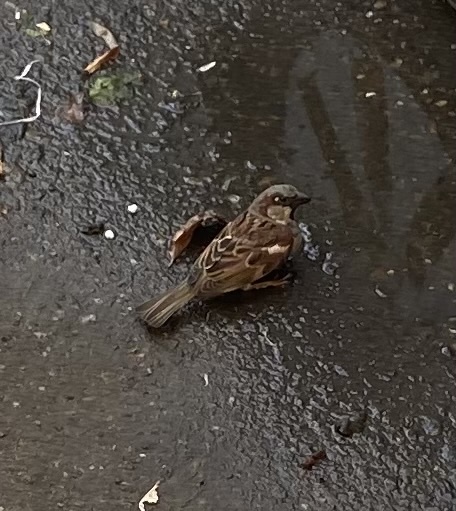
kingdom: Animalia
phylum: Chordata
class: Aves
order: Passeriformes
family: Passeridae
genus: Passer
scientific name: Passer domesticus
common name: House sparrow
